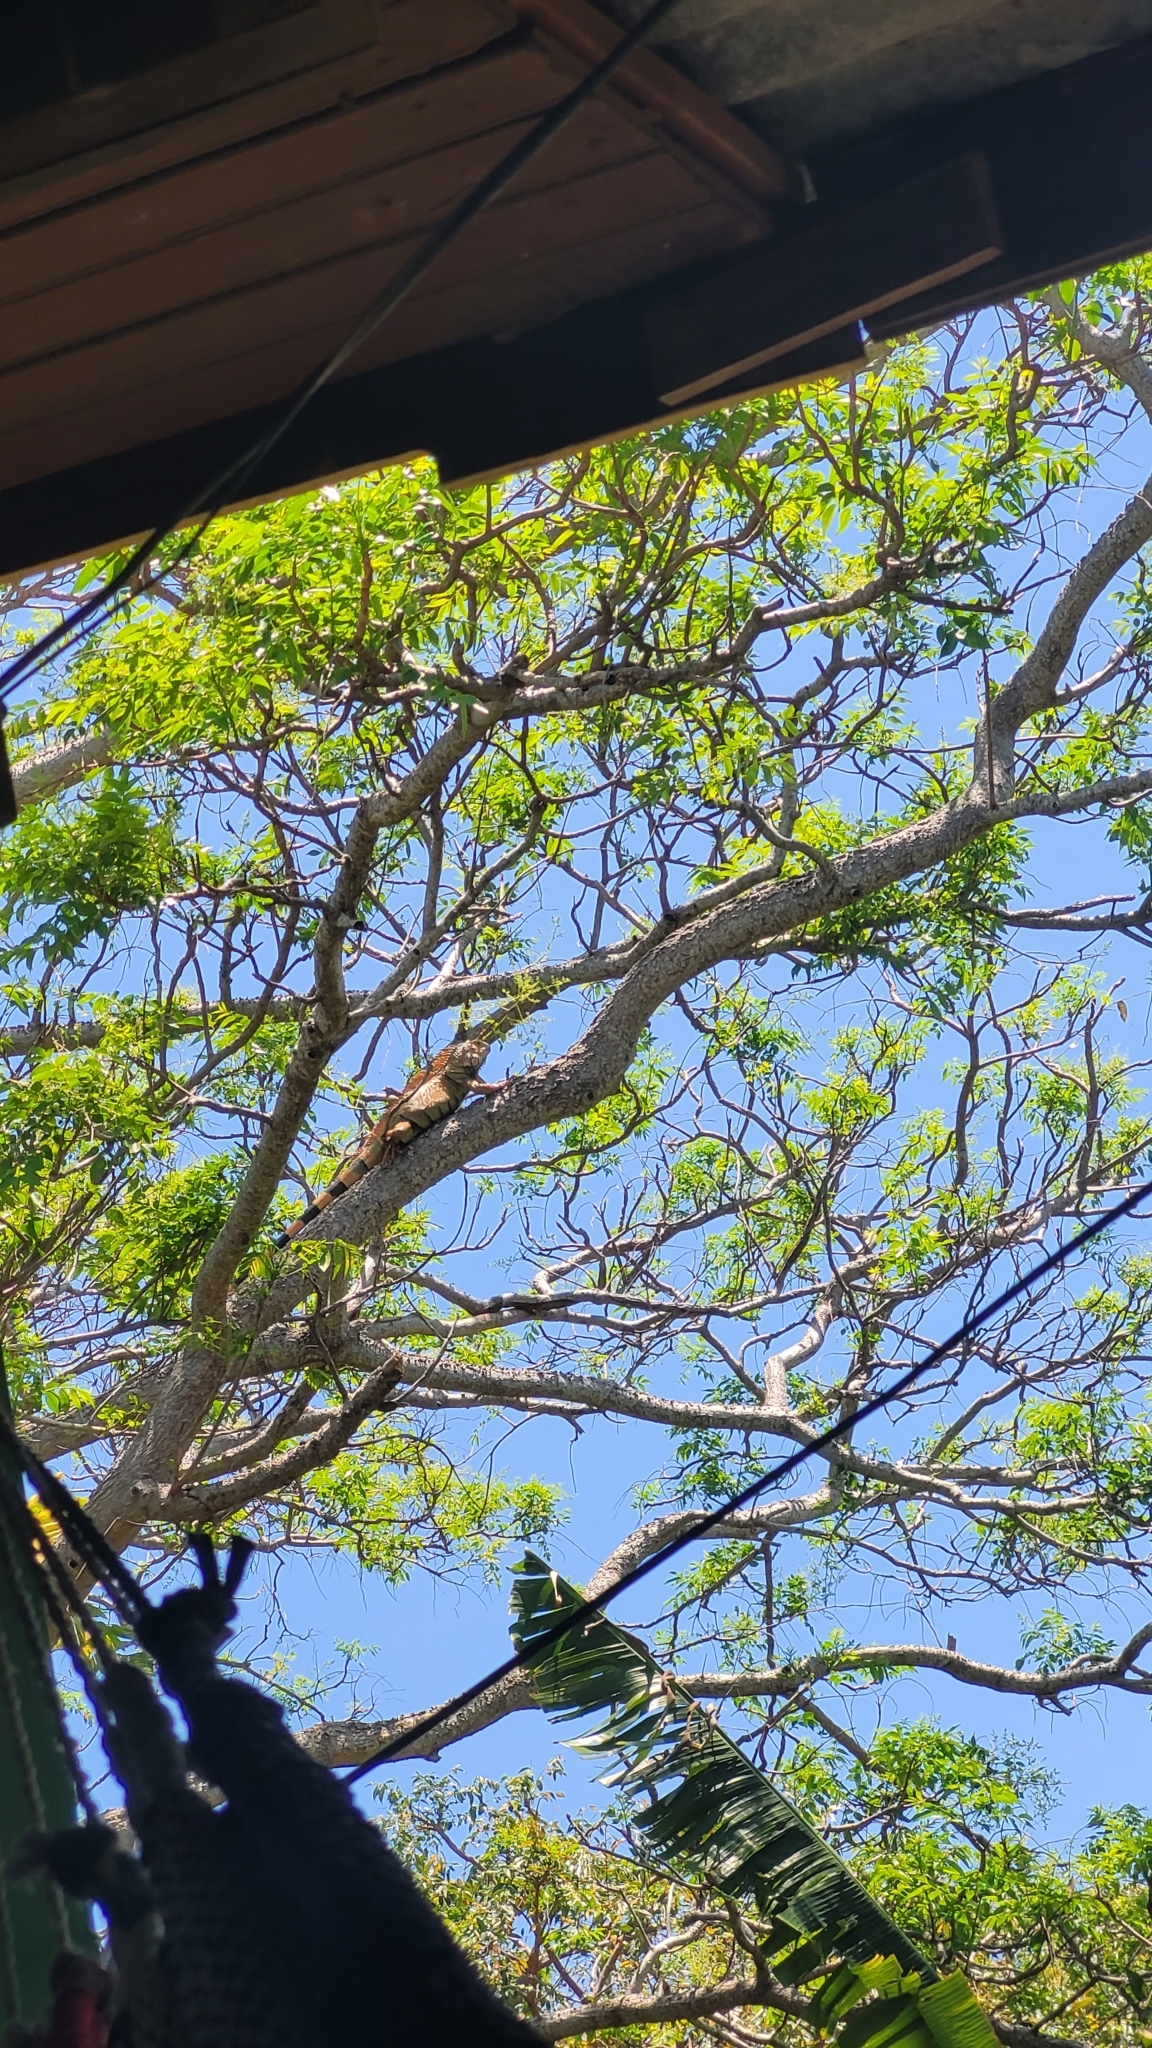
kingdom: Animalia
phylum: Chordata
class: Squamata
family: Iguanidae
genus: Iguana
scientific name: Iguana iguana
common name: Green iguana
